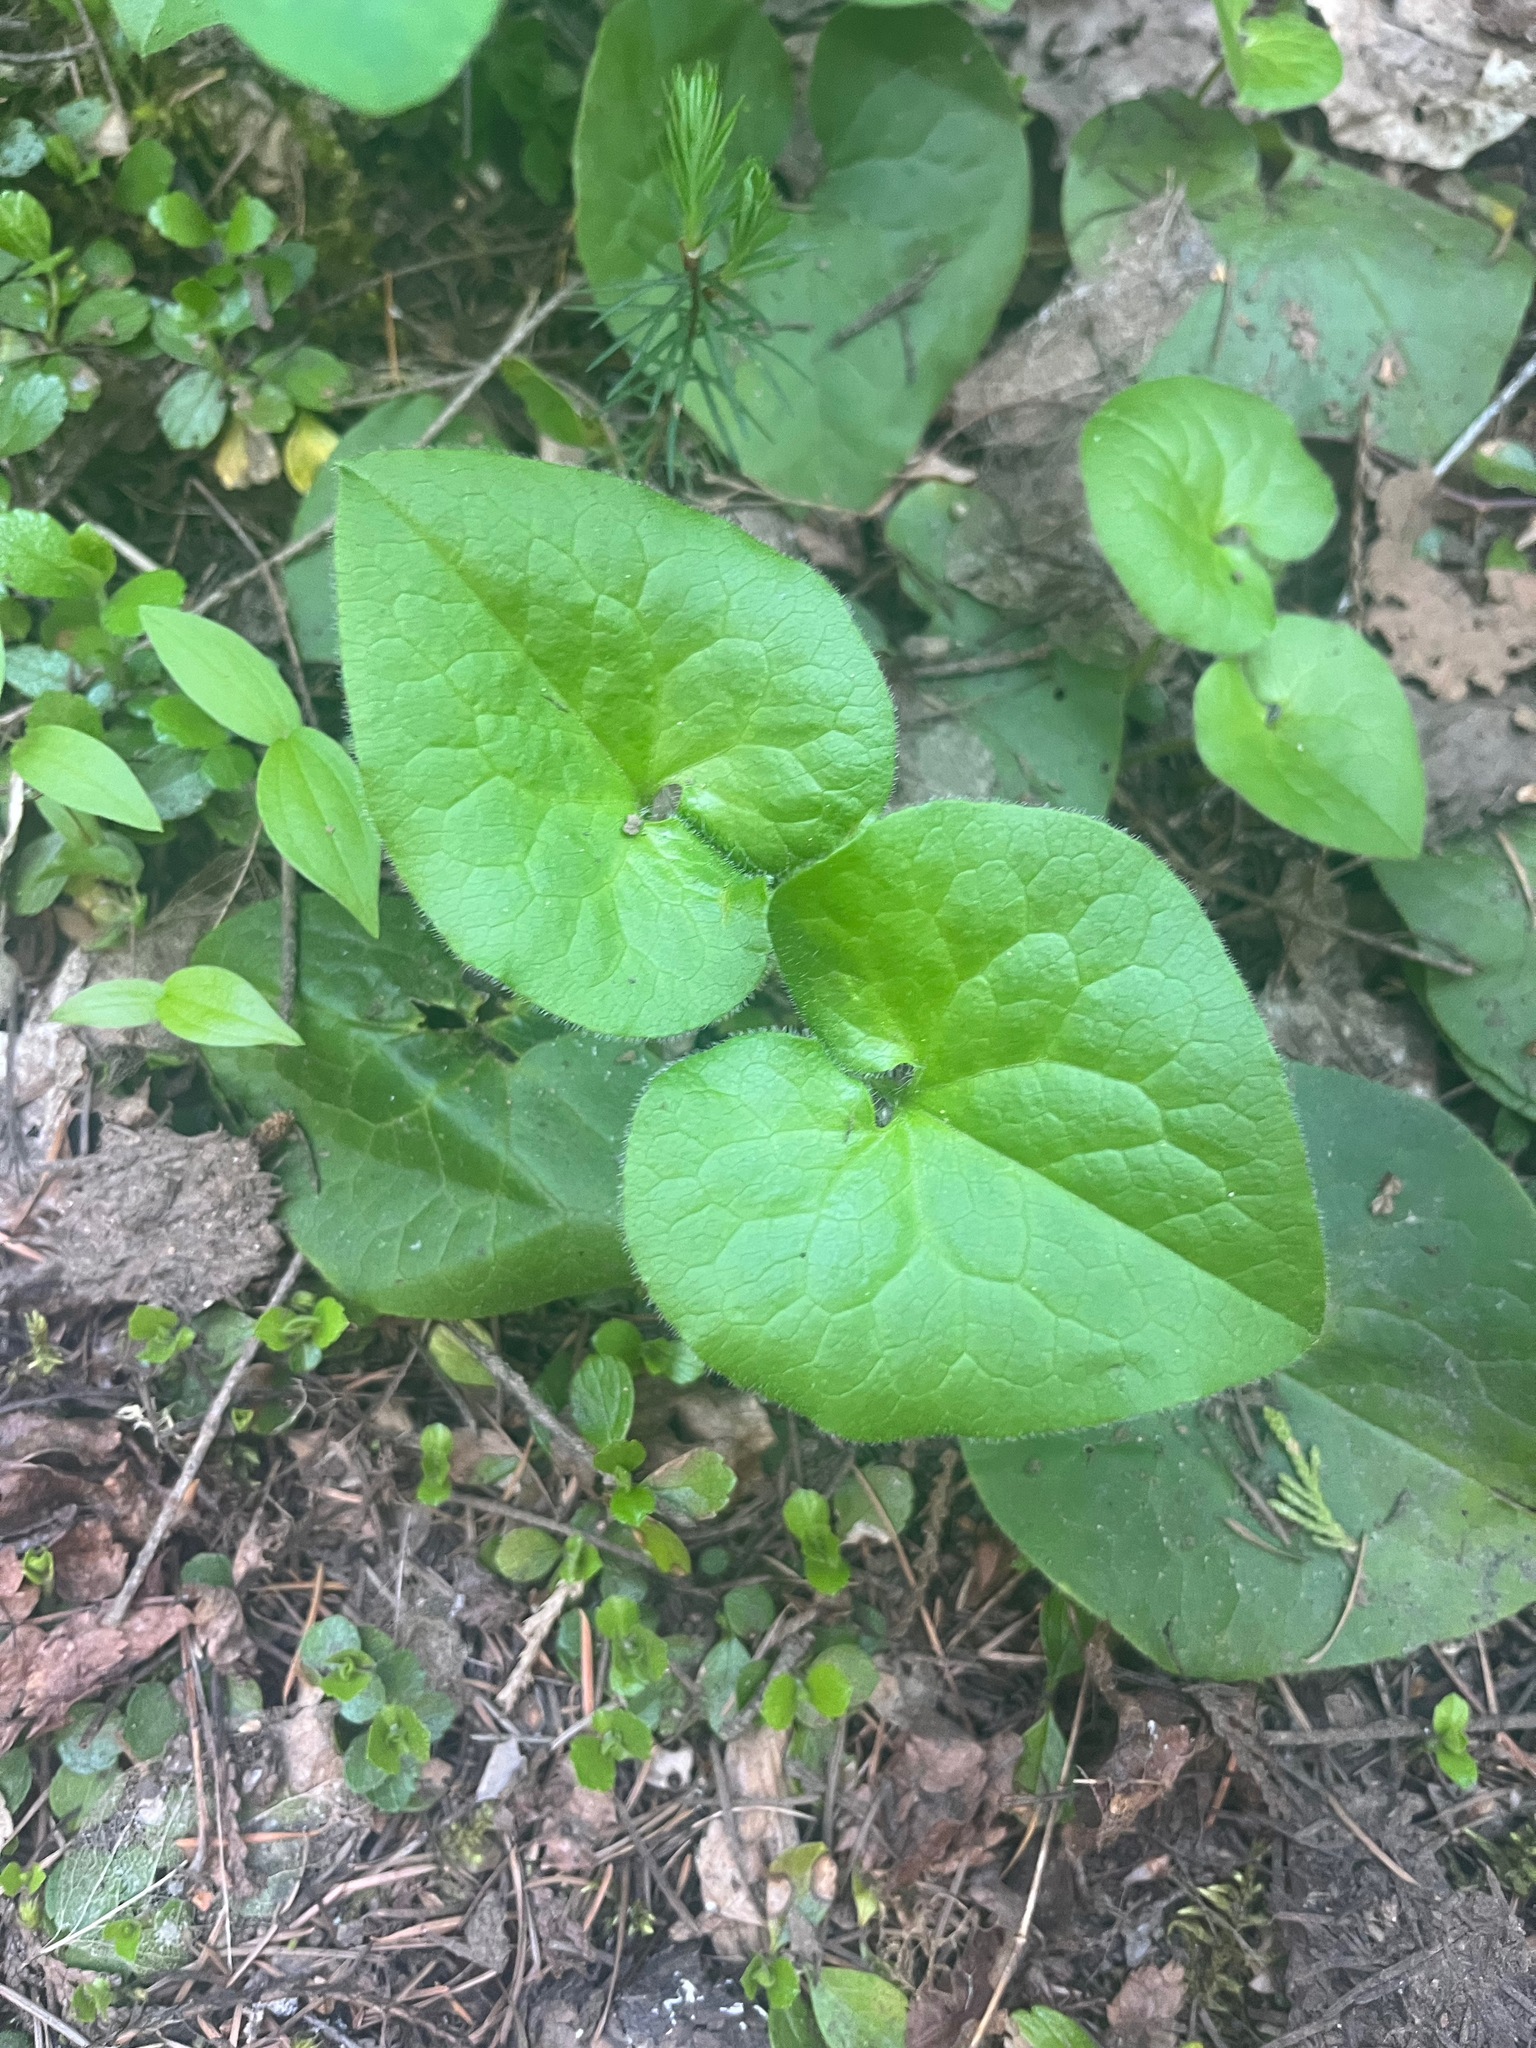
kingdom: Plantae
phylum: Tracheophyta
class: Magnoliopsida
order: Piperales
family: Aristolochiaceae
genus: Asarum
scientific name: Asarum caudatum
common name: Wild ginger
